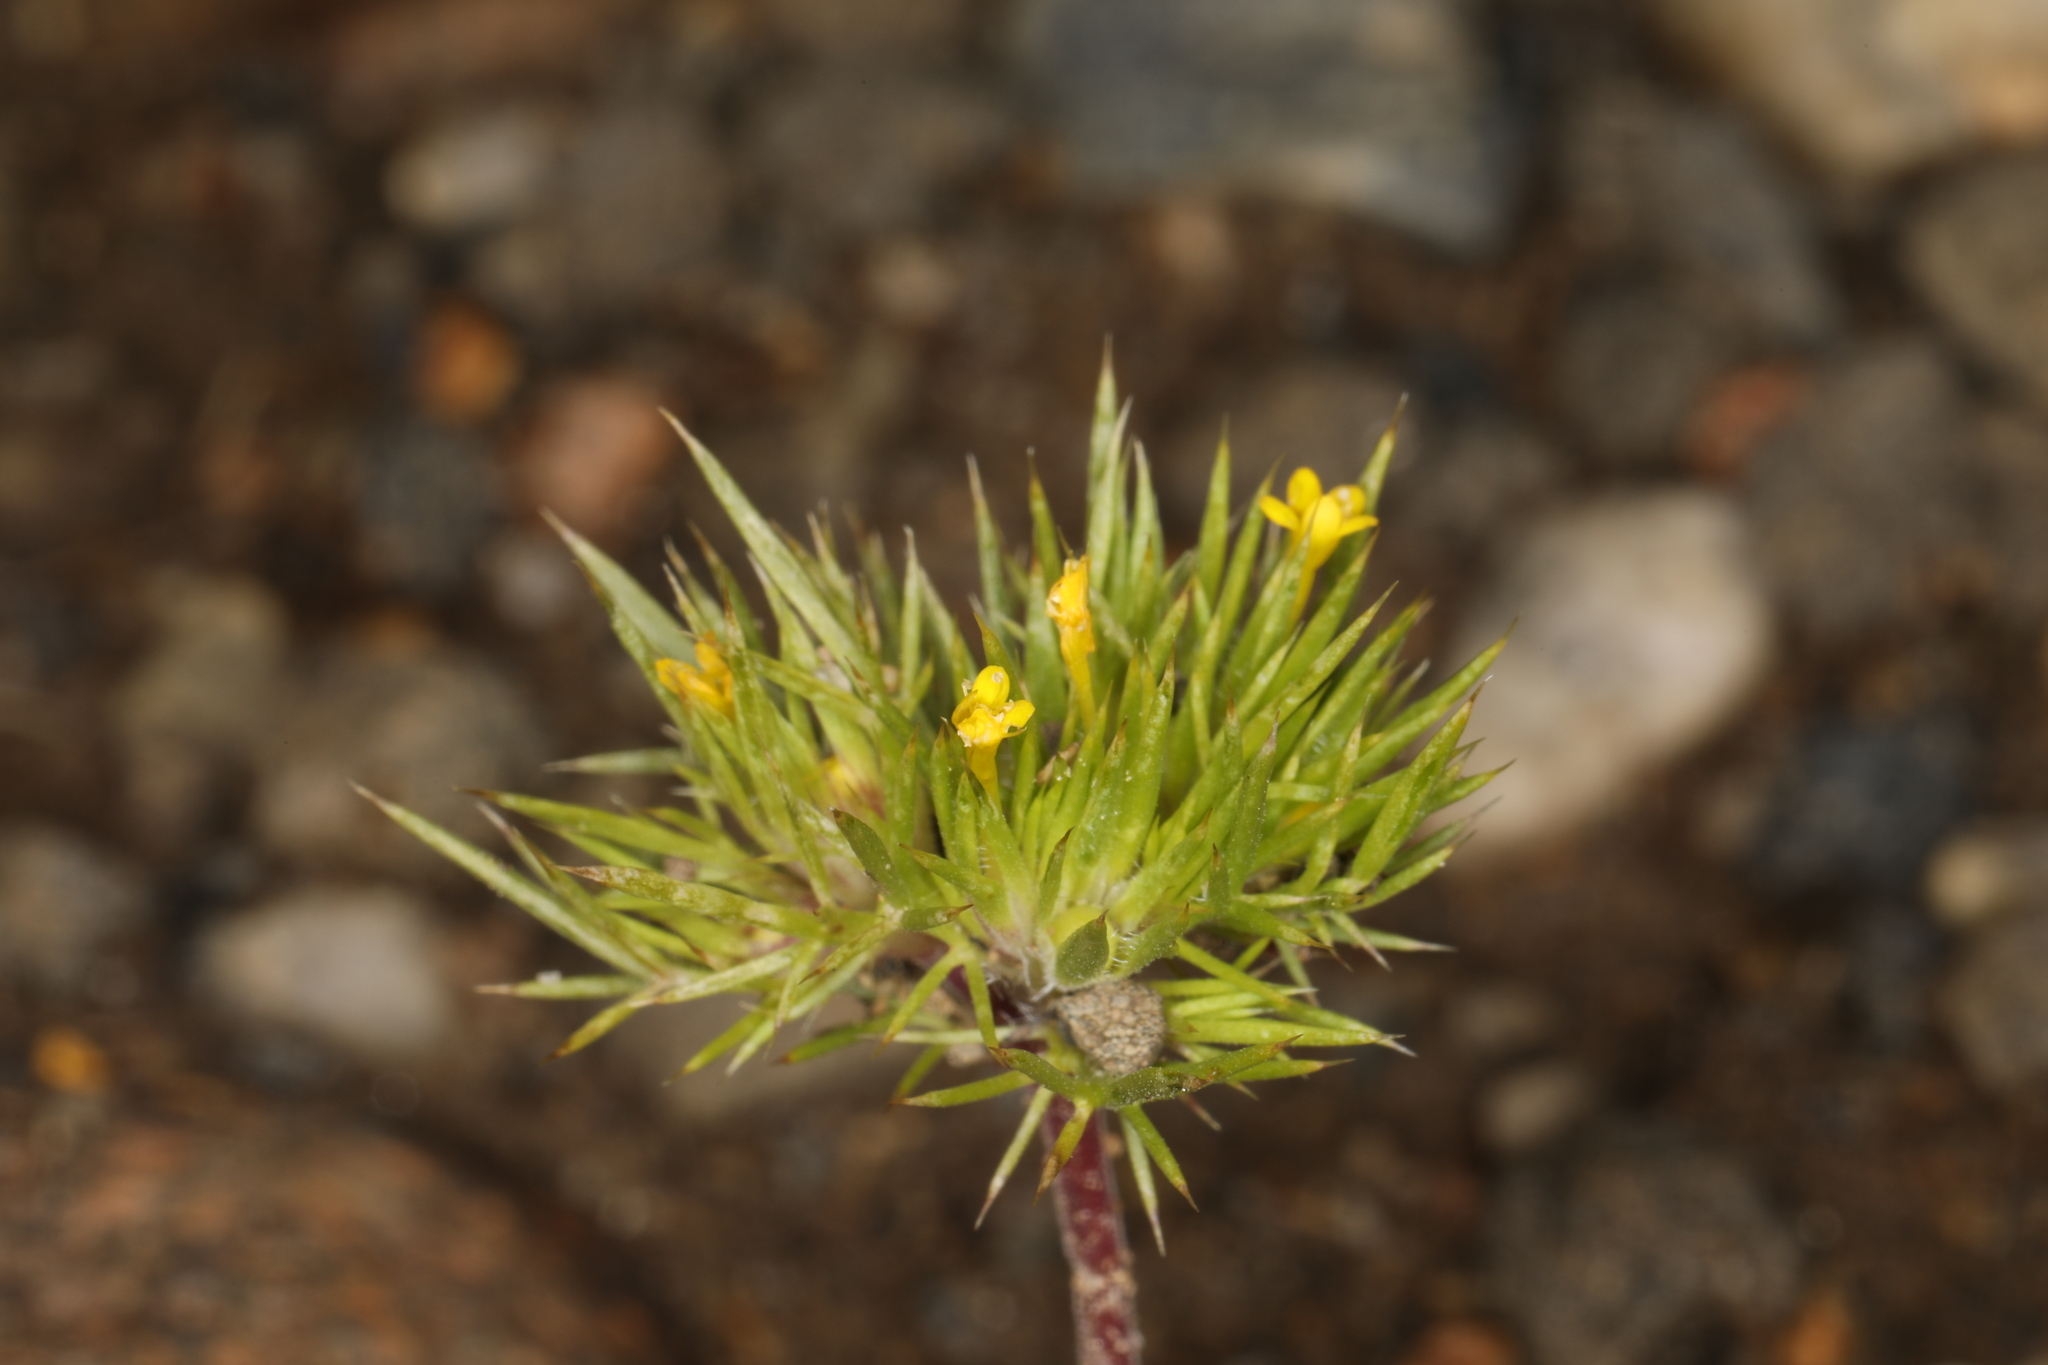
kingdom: Plantae
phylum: Tracheophyta
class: Magnoliopsida
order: Ericales
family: Polemoniaceae
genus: Navarretia
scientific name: Navarretia breweri
